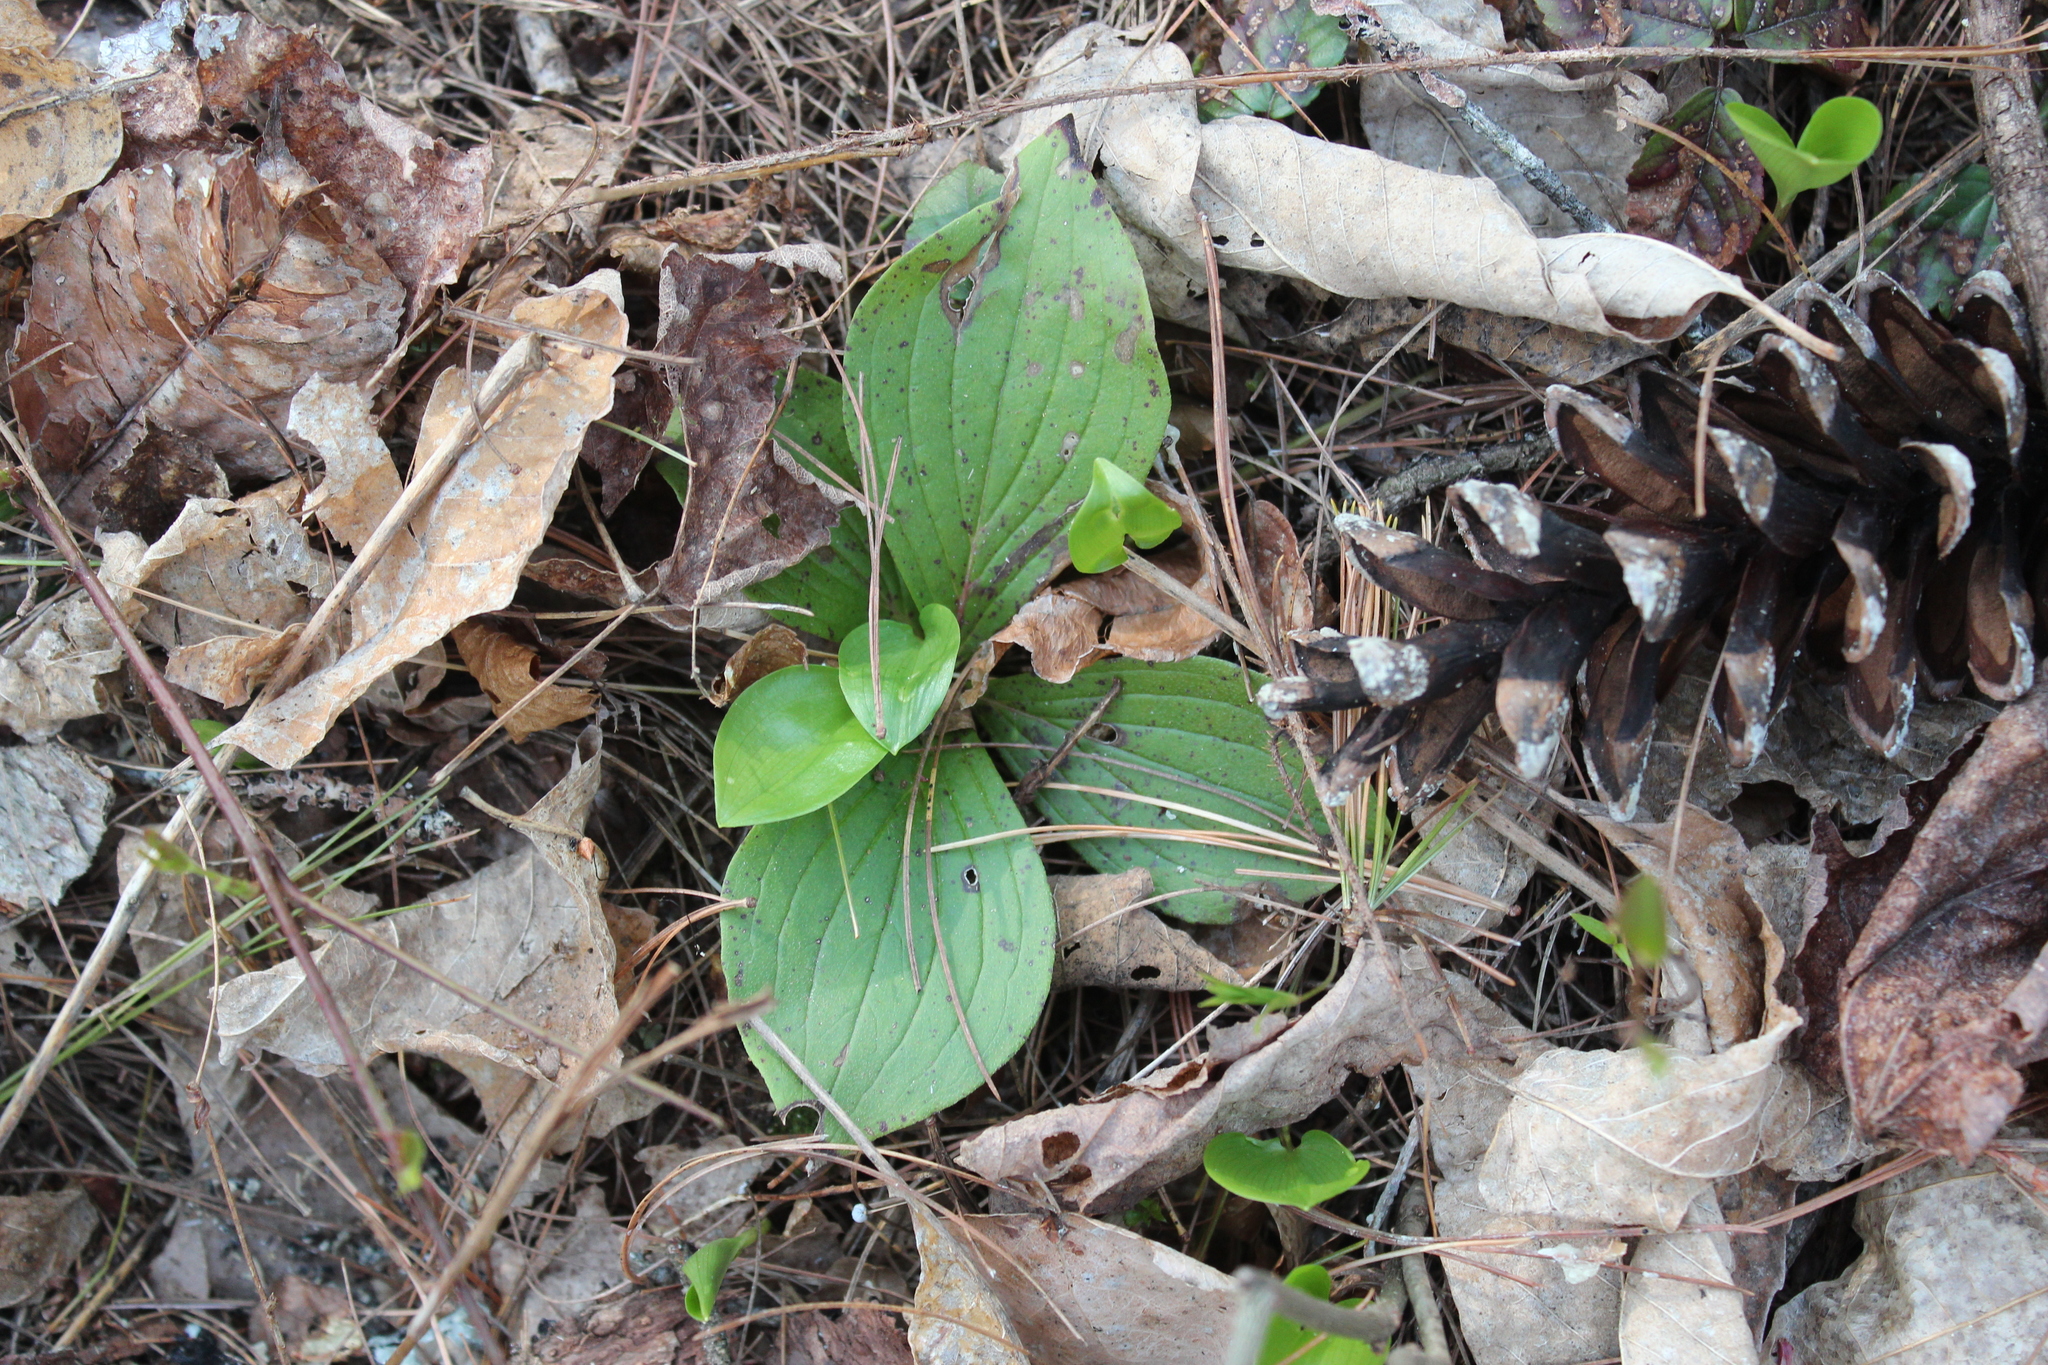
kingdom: Plantae
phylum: Tracheophyta
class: Magnoliopsida
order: Cornales
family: Cornaceae
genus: Cornus
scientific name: Cornus canadensis
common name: Creeping dogwood
